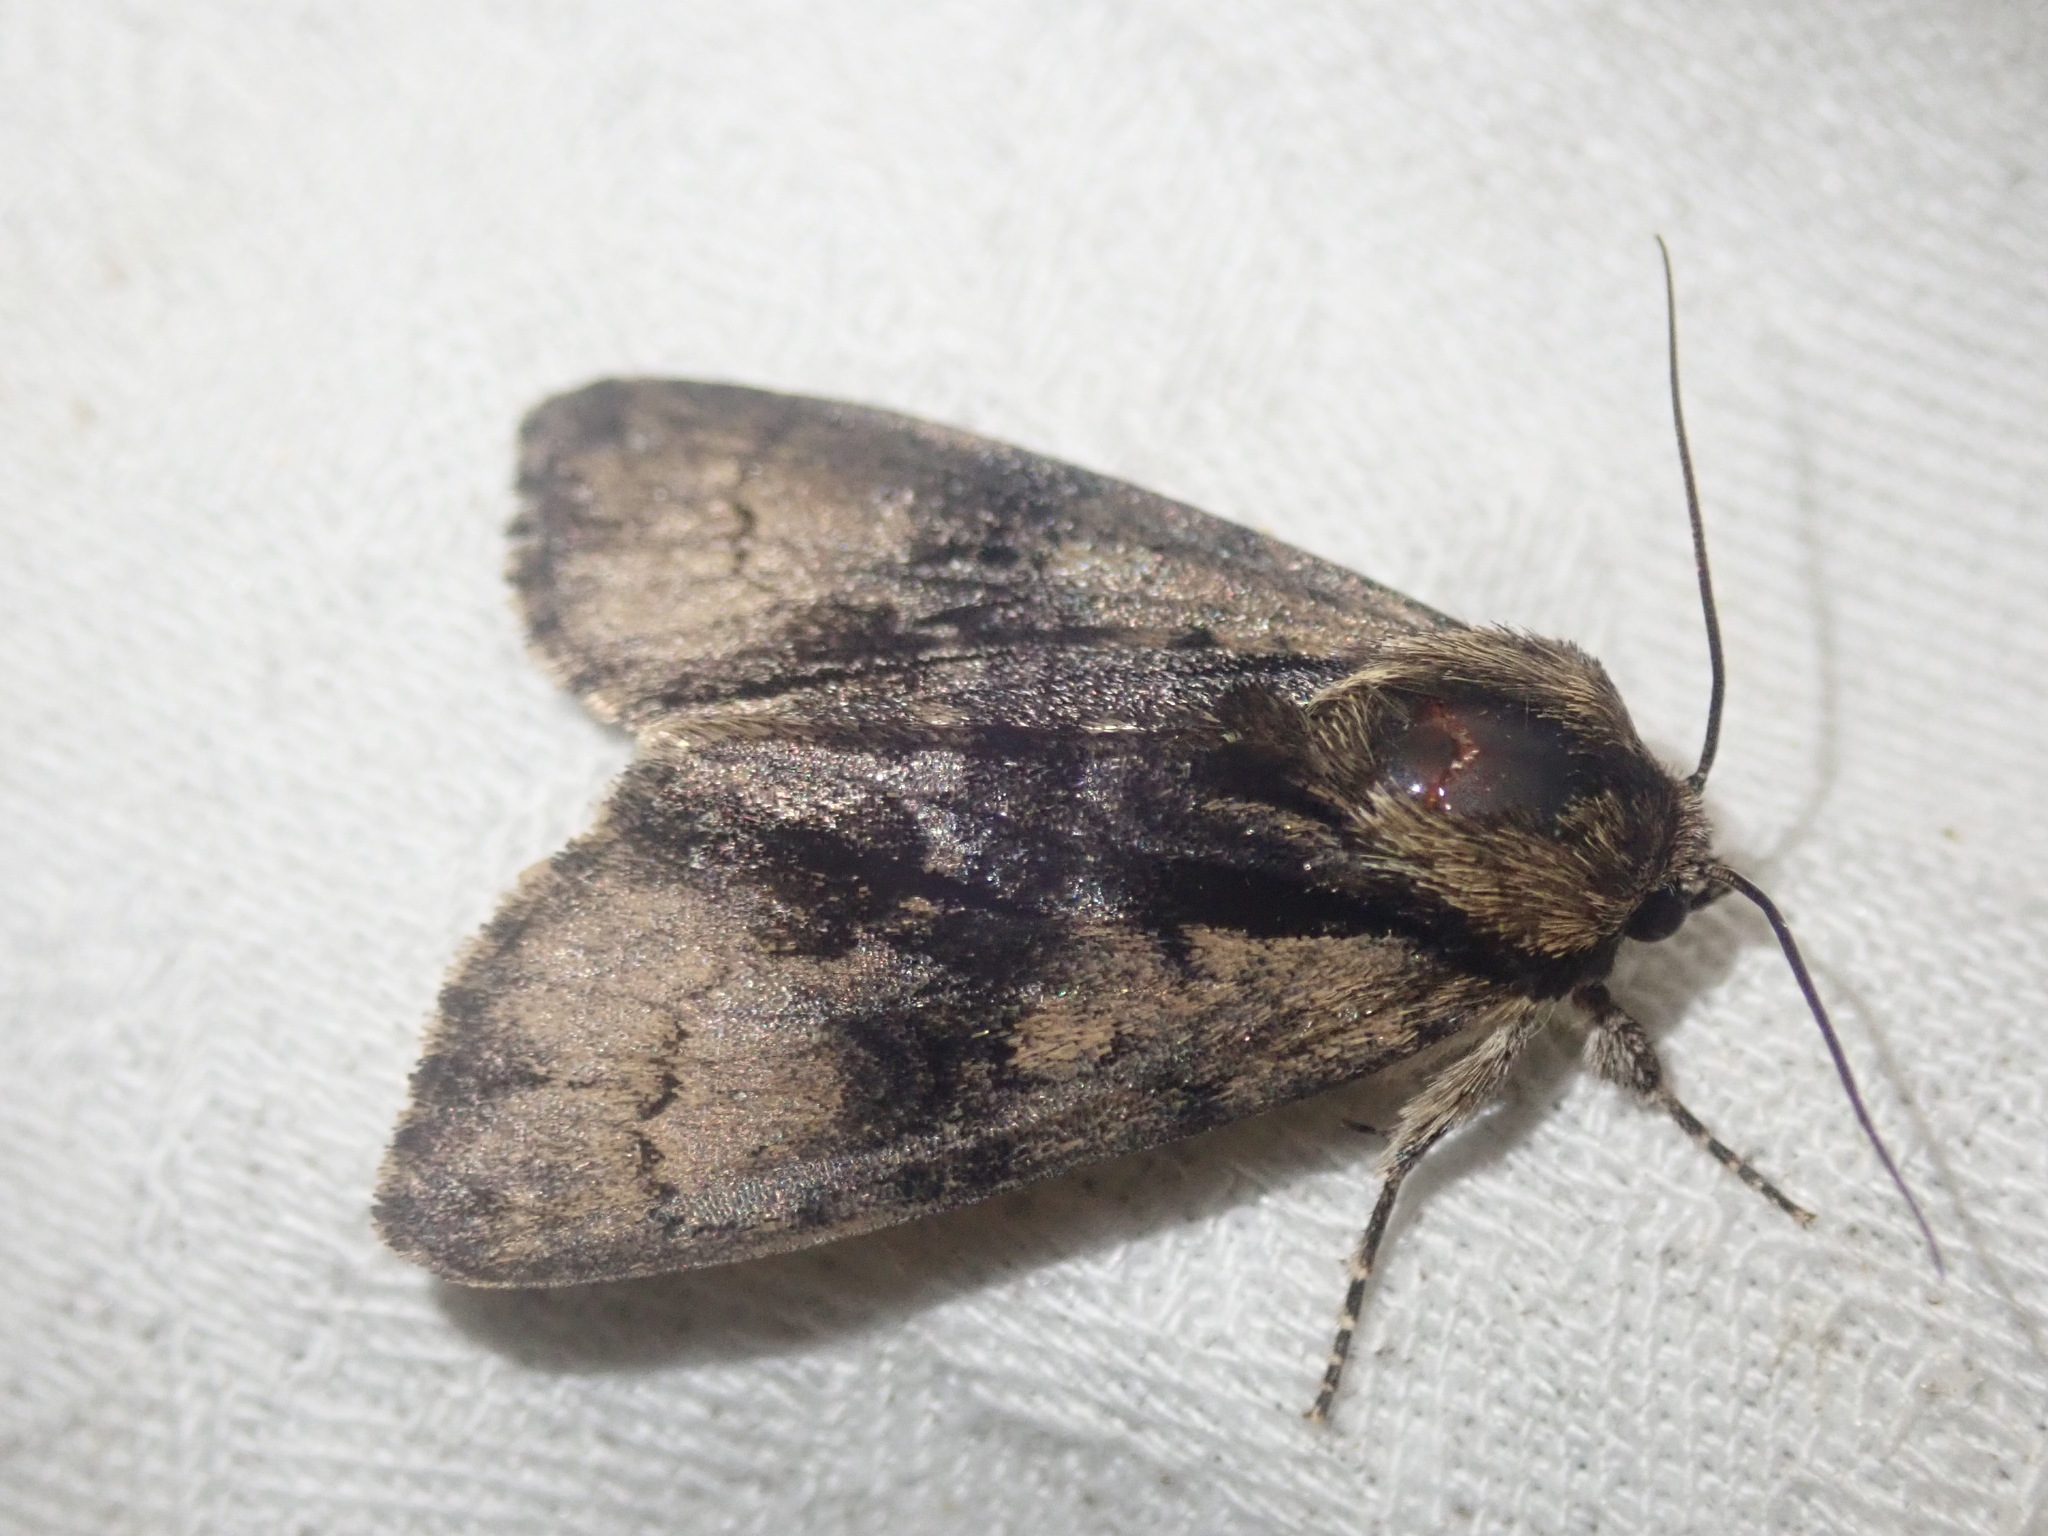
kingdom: Animalia
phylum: Arthropoda
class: Insecta
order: Lepidoptera
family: Noctuidae
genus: Acronicta
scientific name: Acronicta alni
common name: Alder moth
